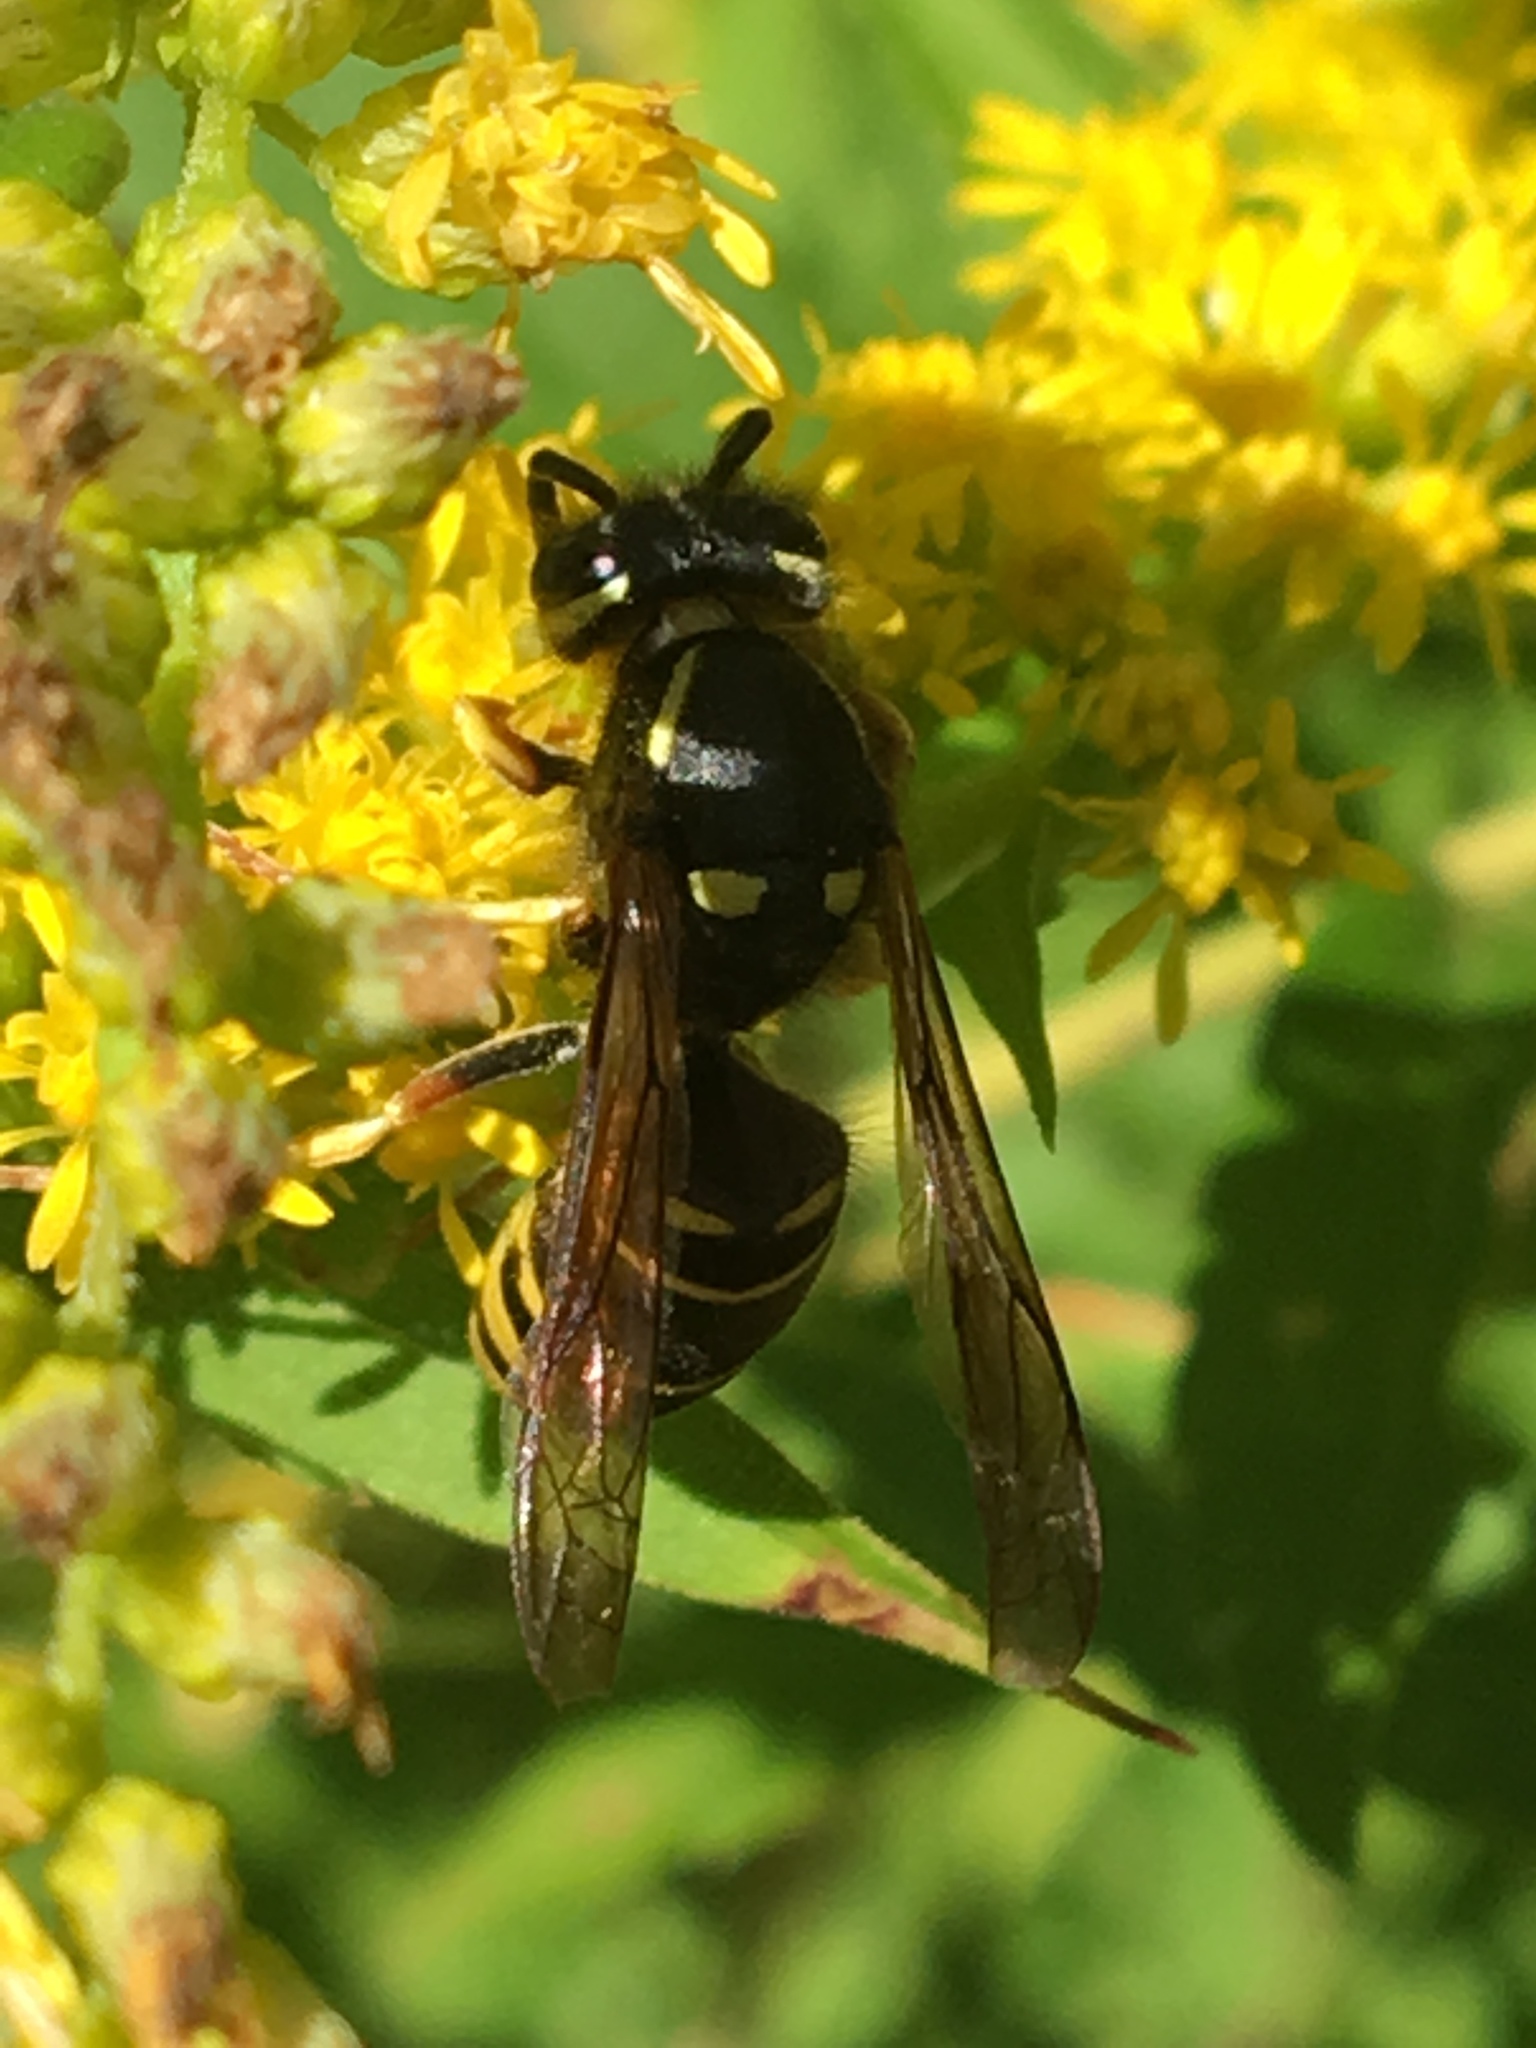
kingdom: Animalia
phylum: Arthropoda
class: Insecta
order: Hymenoptera
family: Vespidae
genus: Vespula
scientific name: Vespula vidua
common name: Widow yellowjacket
